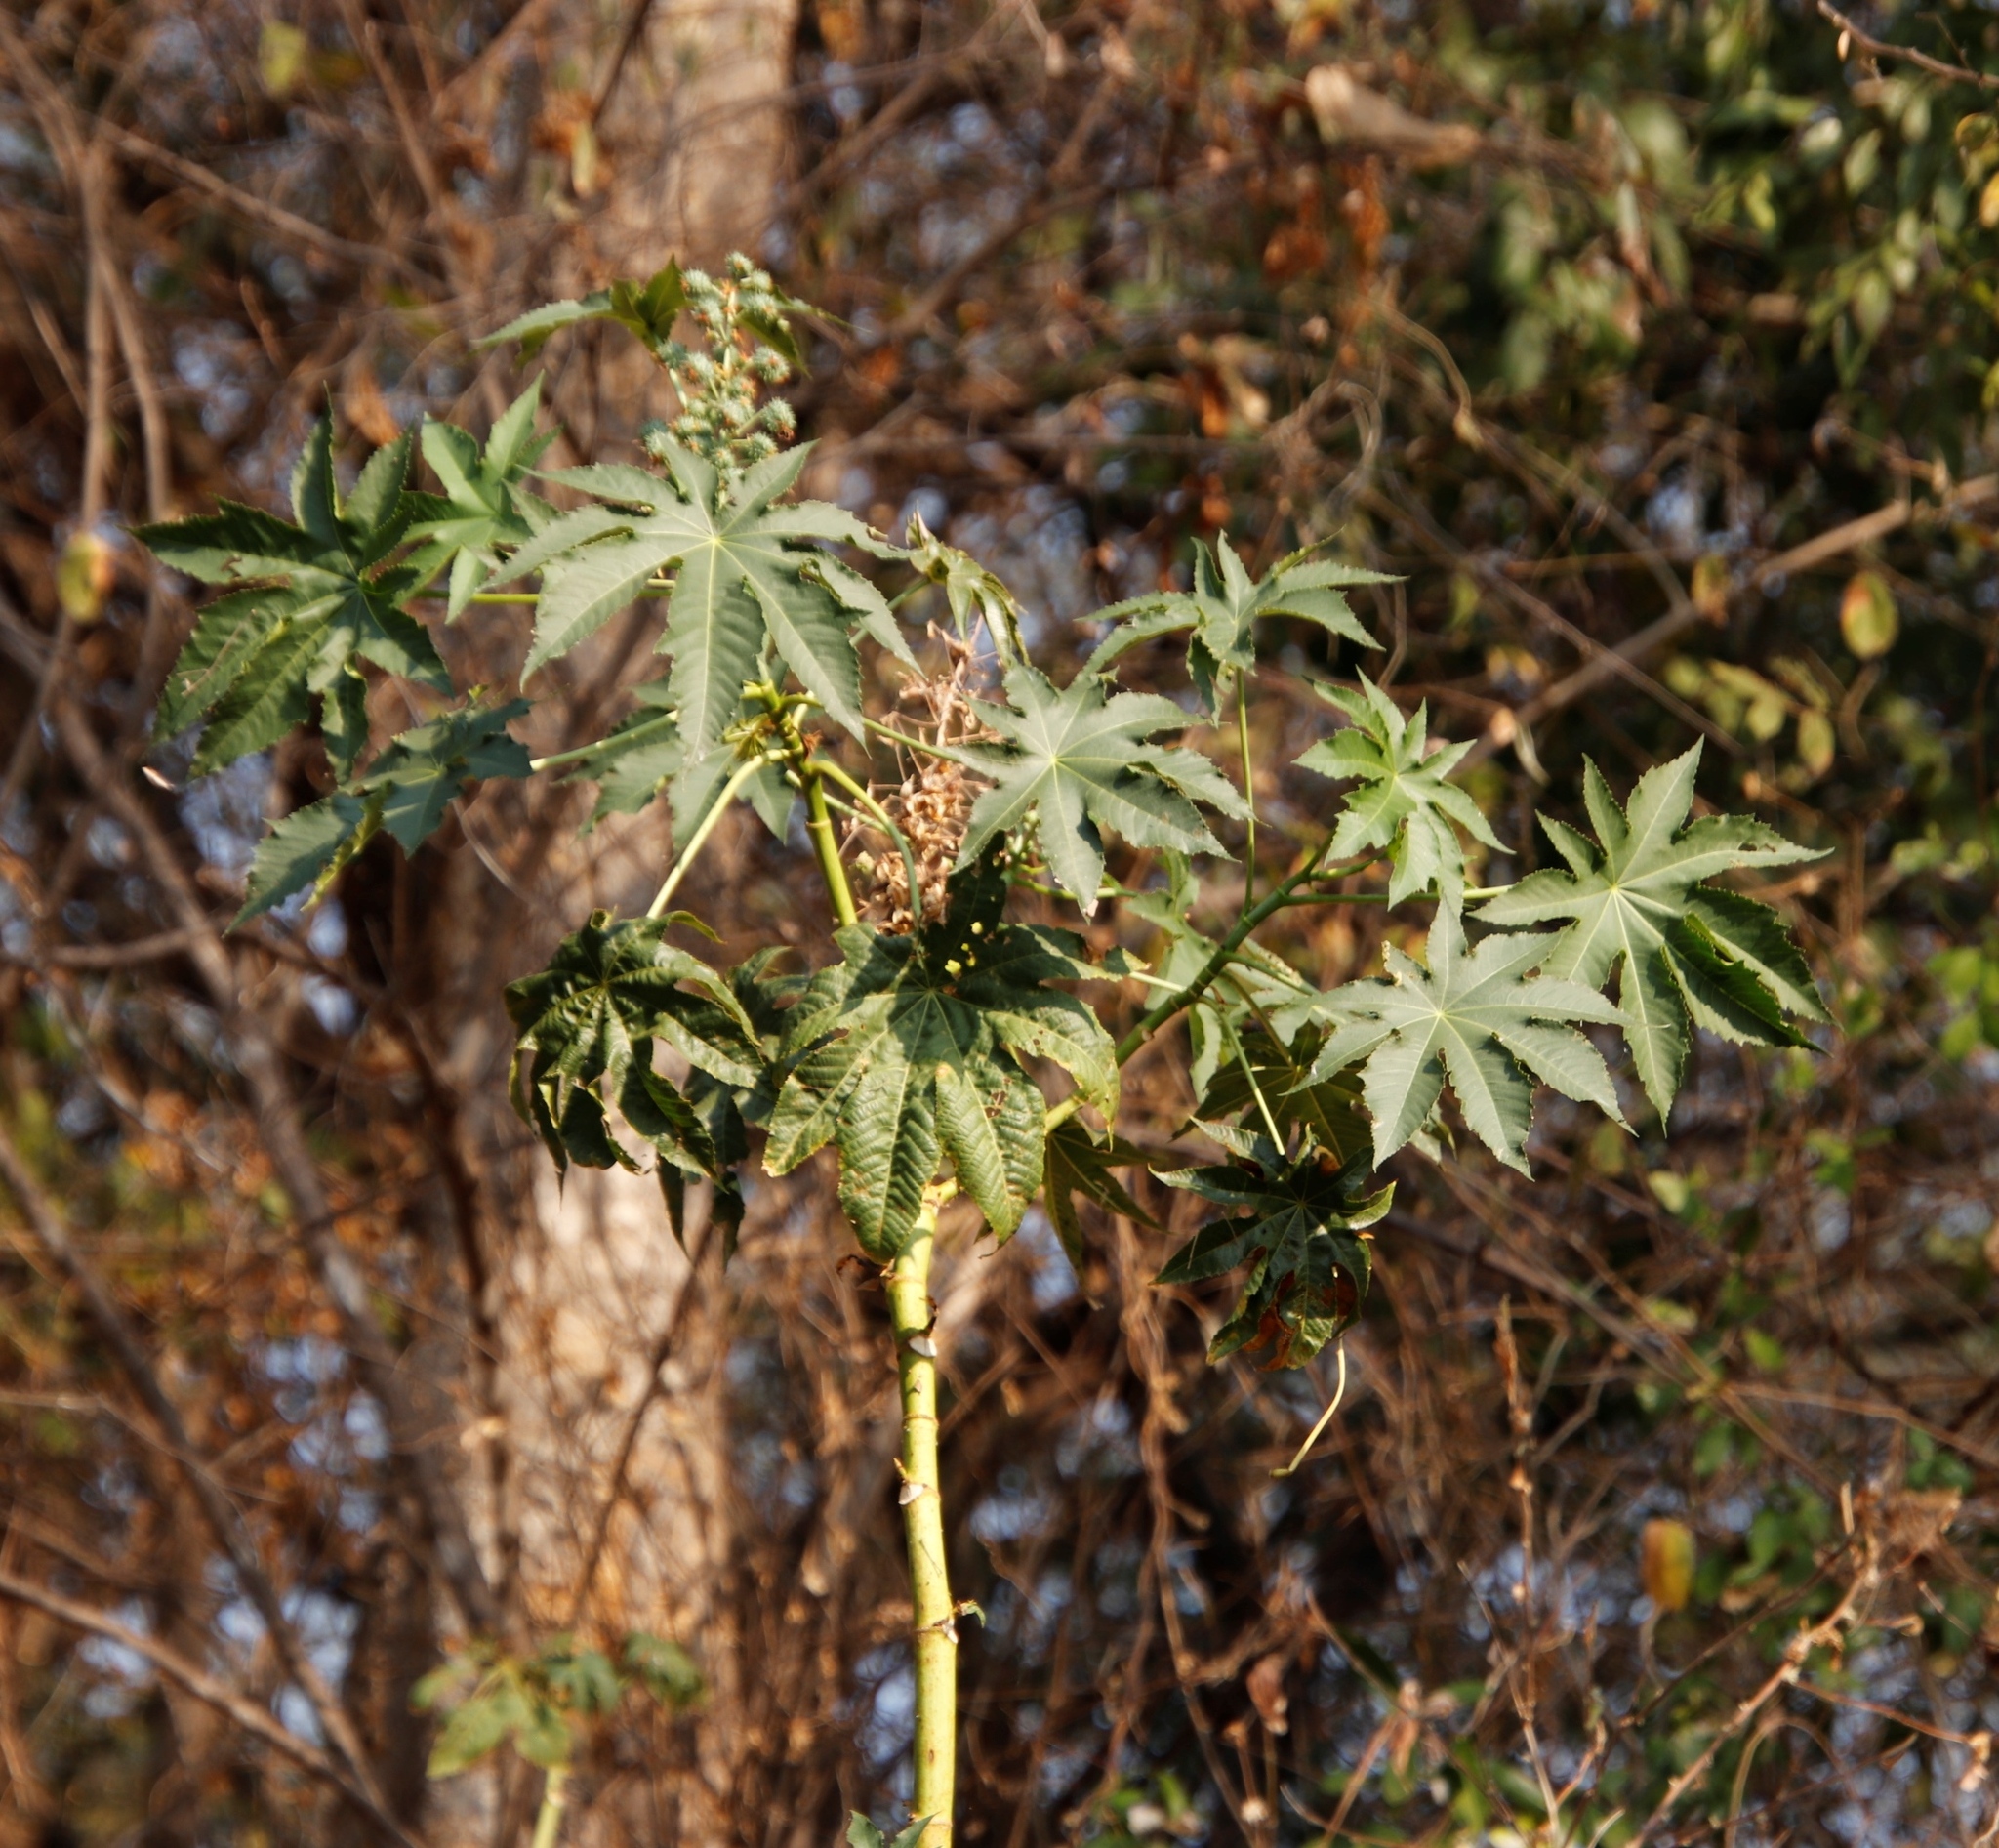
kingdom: Plantae
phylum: Tracheophyta
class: Magnoliopsida
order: Malpighiales
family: Euphorbiaceae
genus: Ricinus
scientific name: Ricinus communis
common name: Castor-oil-plant
